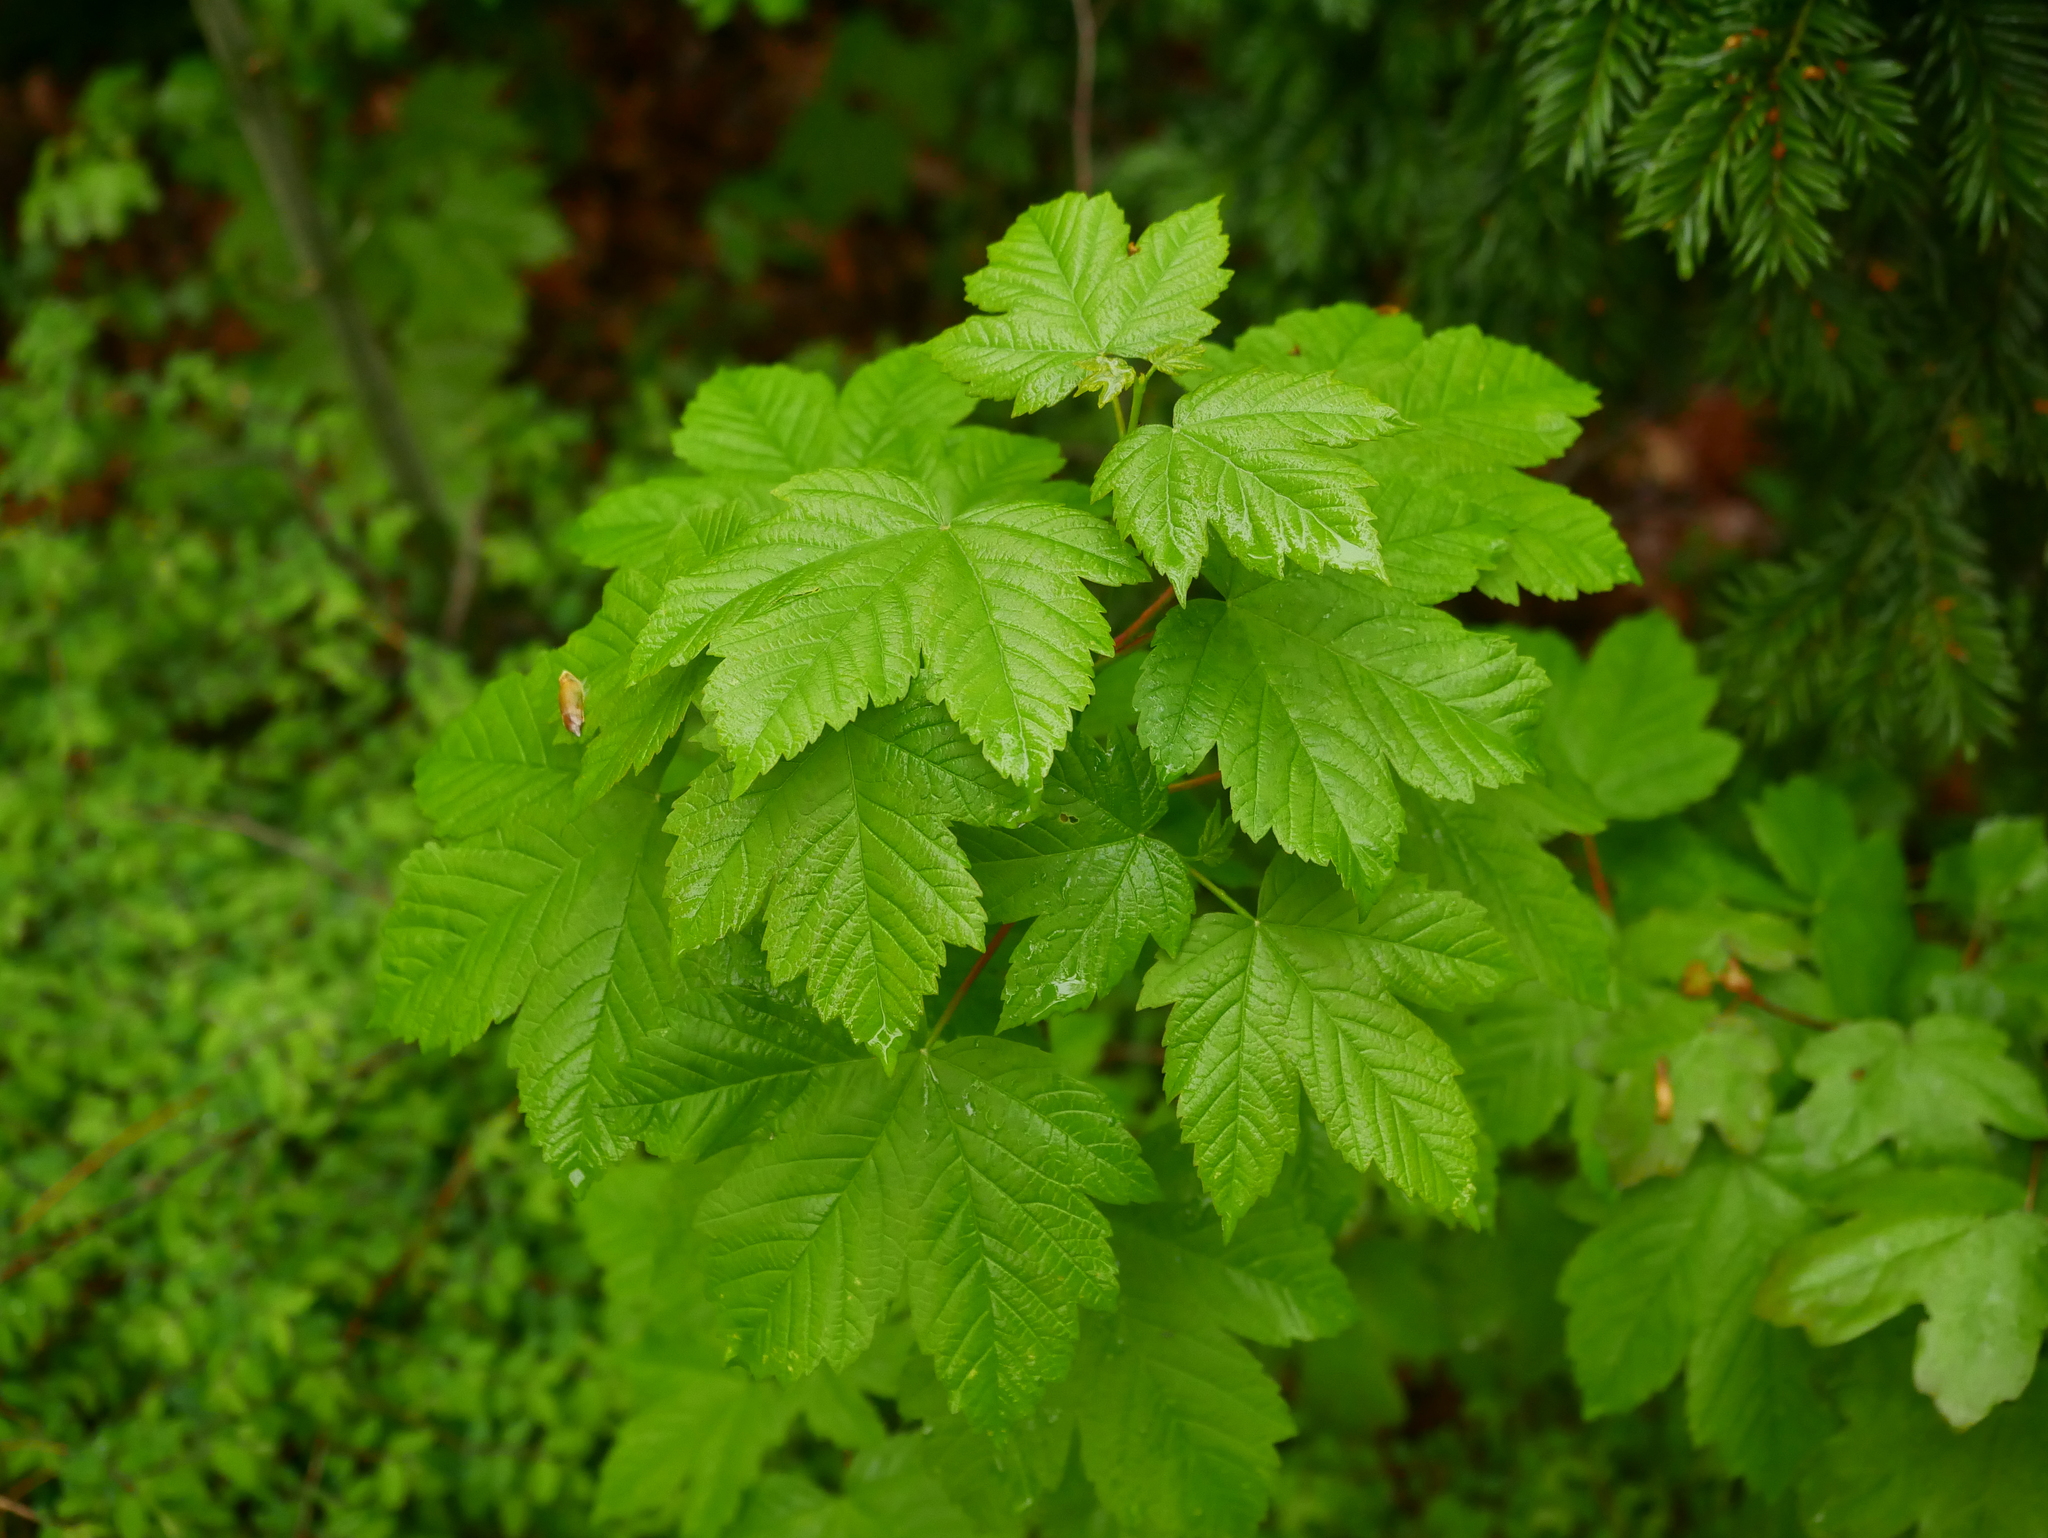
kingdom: Plantae
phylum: Tracheophyta
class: Magnoliopsida
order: Sapindales
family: Sapindaceae
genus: Acer
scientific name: Acer pseudoplatanus
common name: Sycamore
